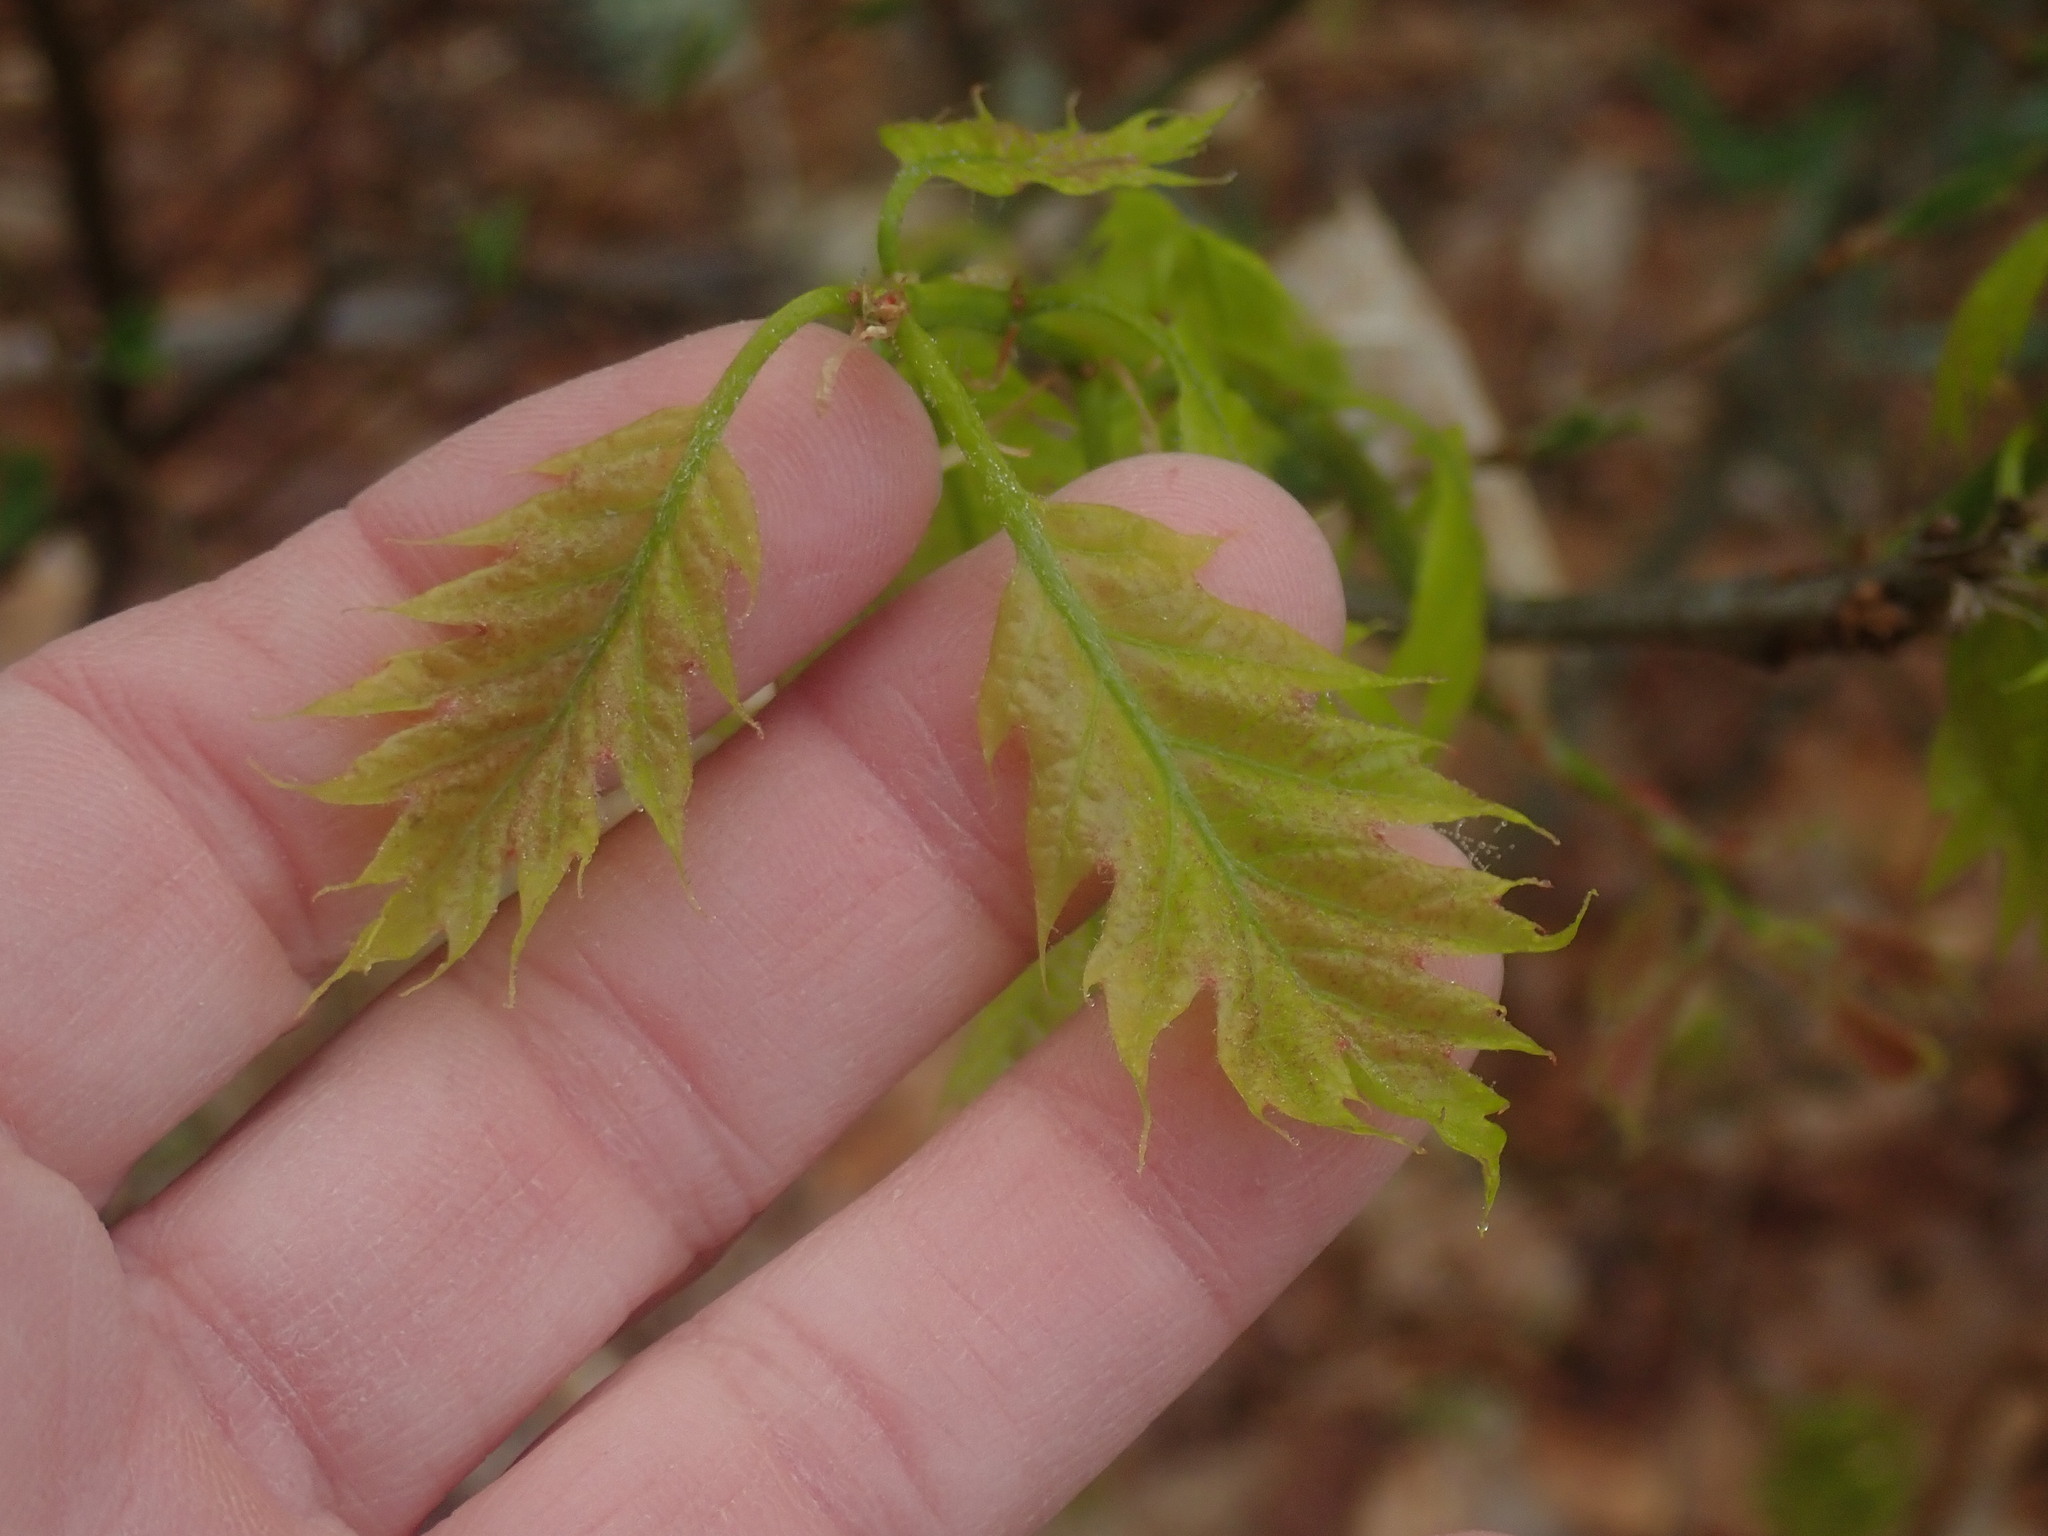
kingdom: Plantae
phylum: Tracheophyta
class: Magnoliopsida
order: Fagales
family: Fagaceae
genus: Quercus
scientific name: Quercus
